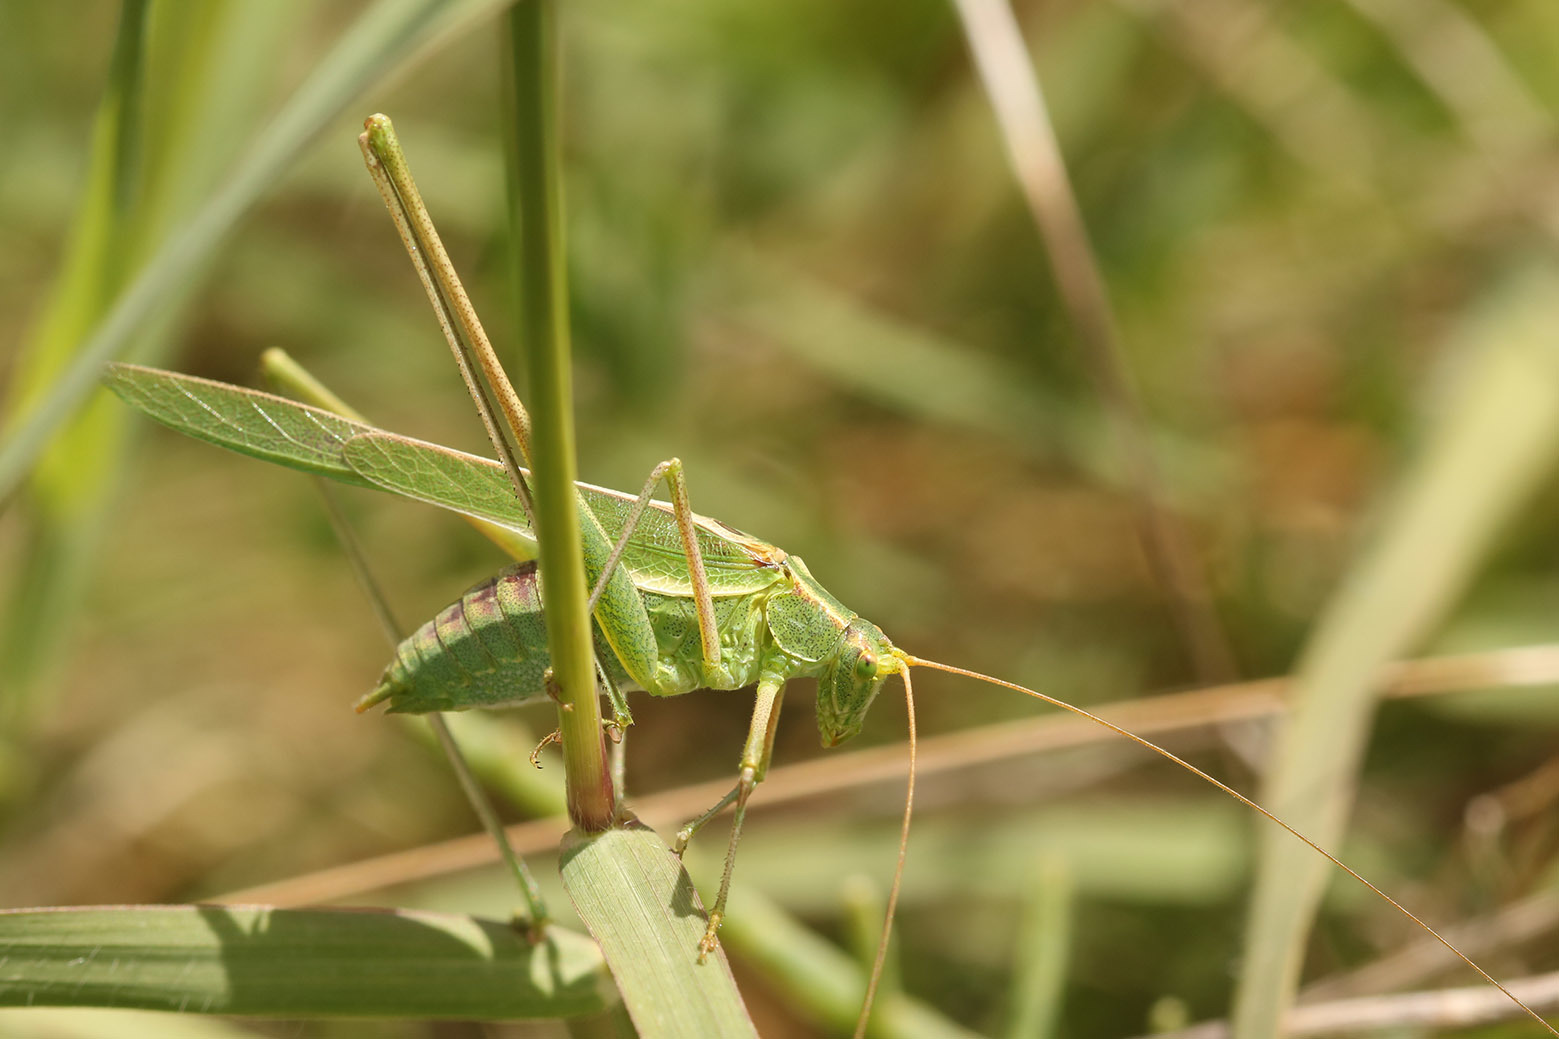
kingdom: Animalia
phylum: Arthropoda
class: Insecta
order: Orthoptera
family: Tettigoniidae
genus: Burgilis
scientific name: Burgilis curta
